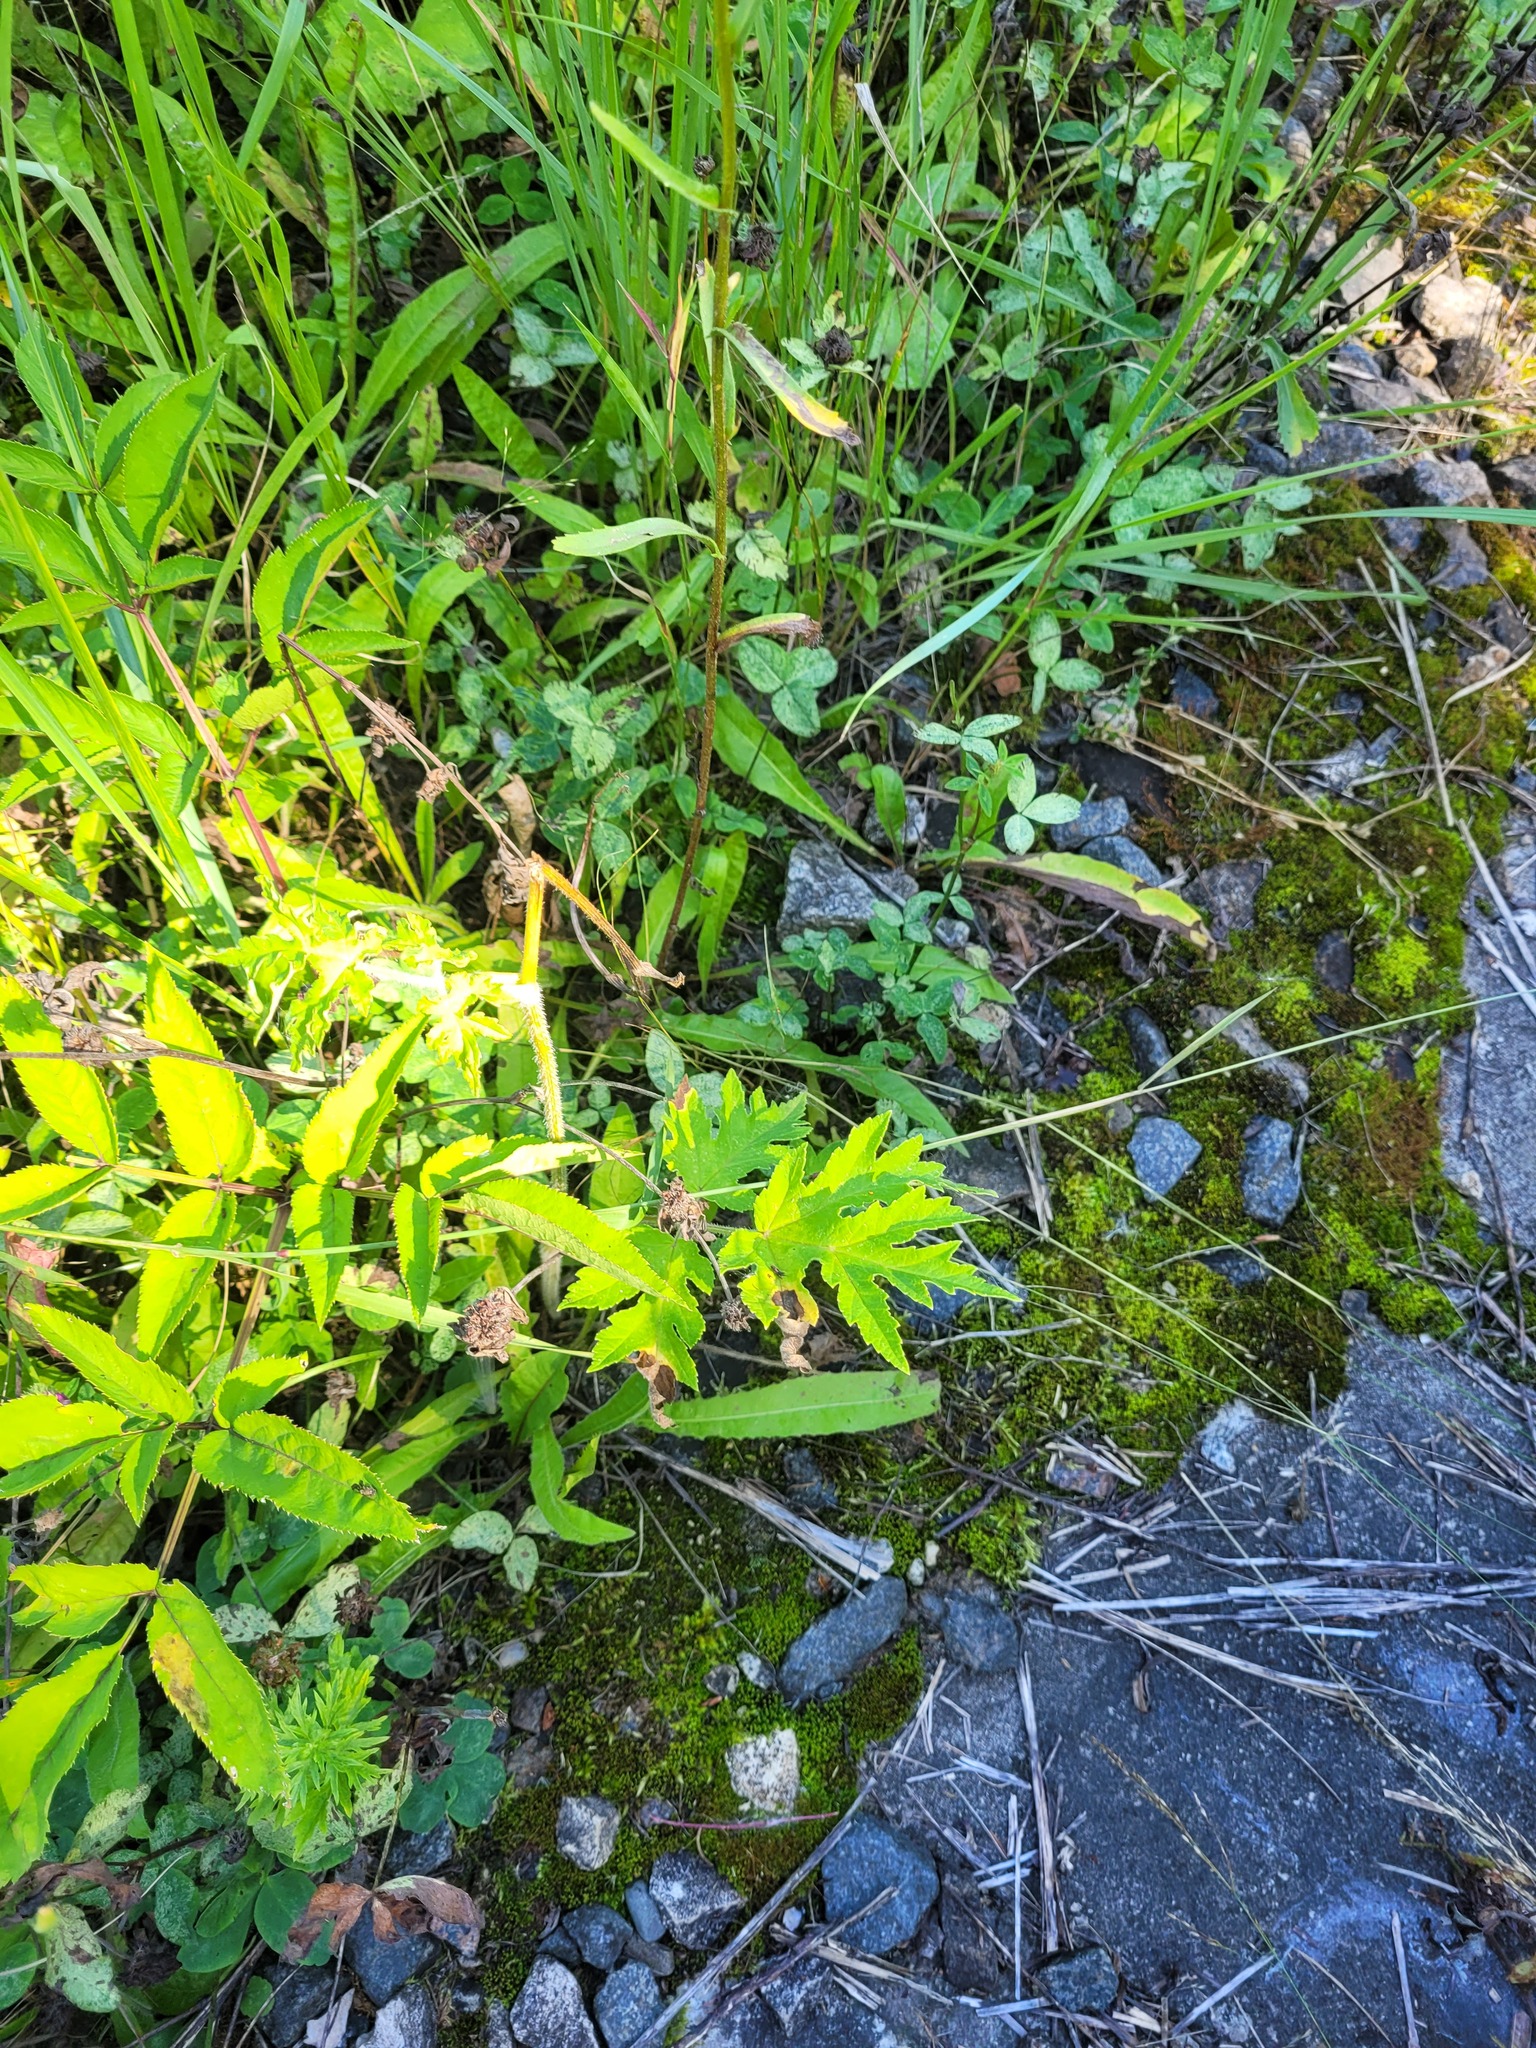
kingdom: Plantae
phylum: Tracheophyta
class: Magnoliopsida
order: Apiales
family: Apiaceae
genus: Heracleum
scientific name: Heracleum sphondylium
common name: Hogweed
